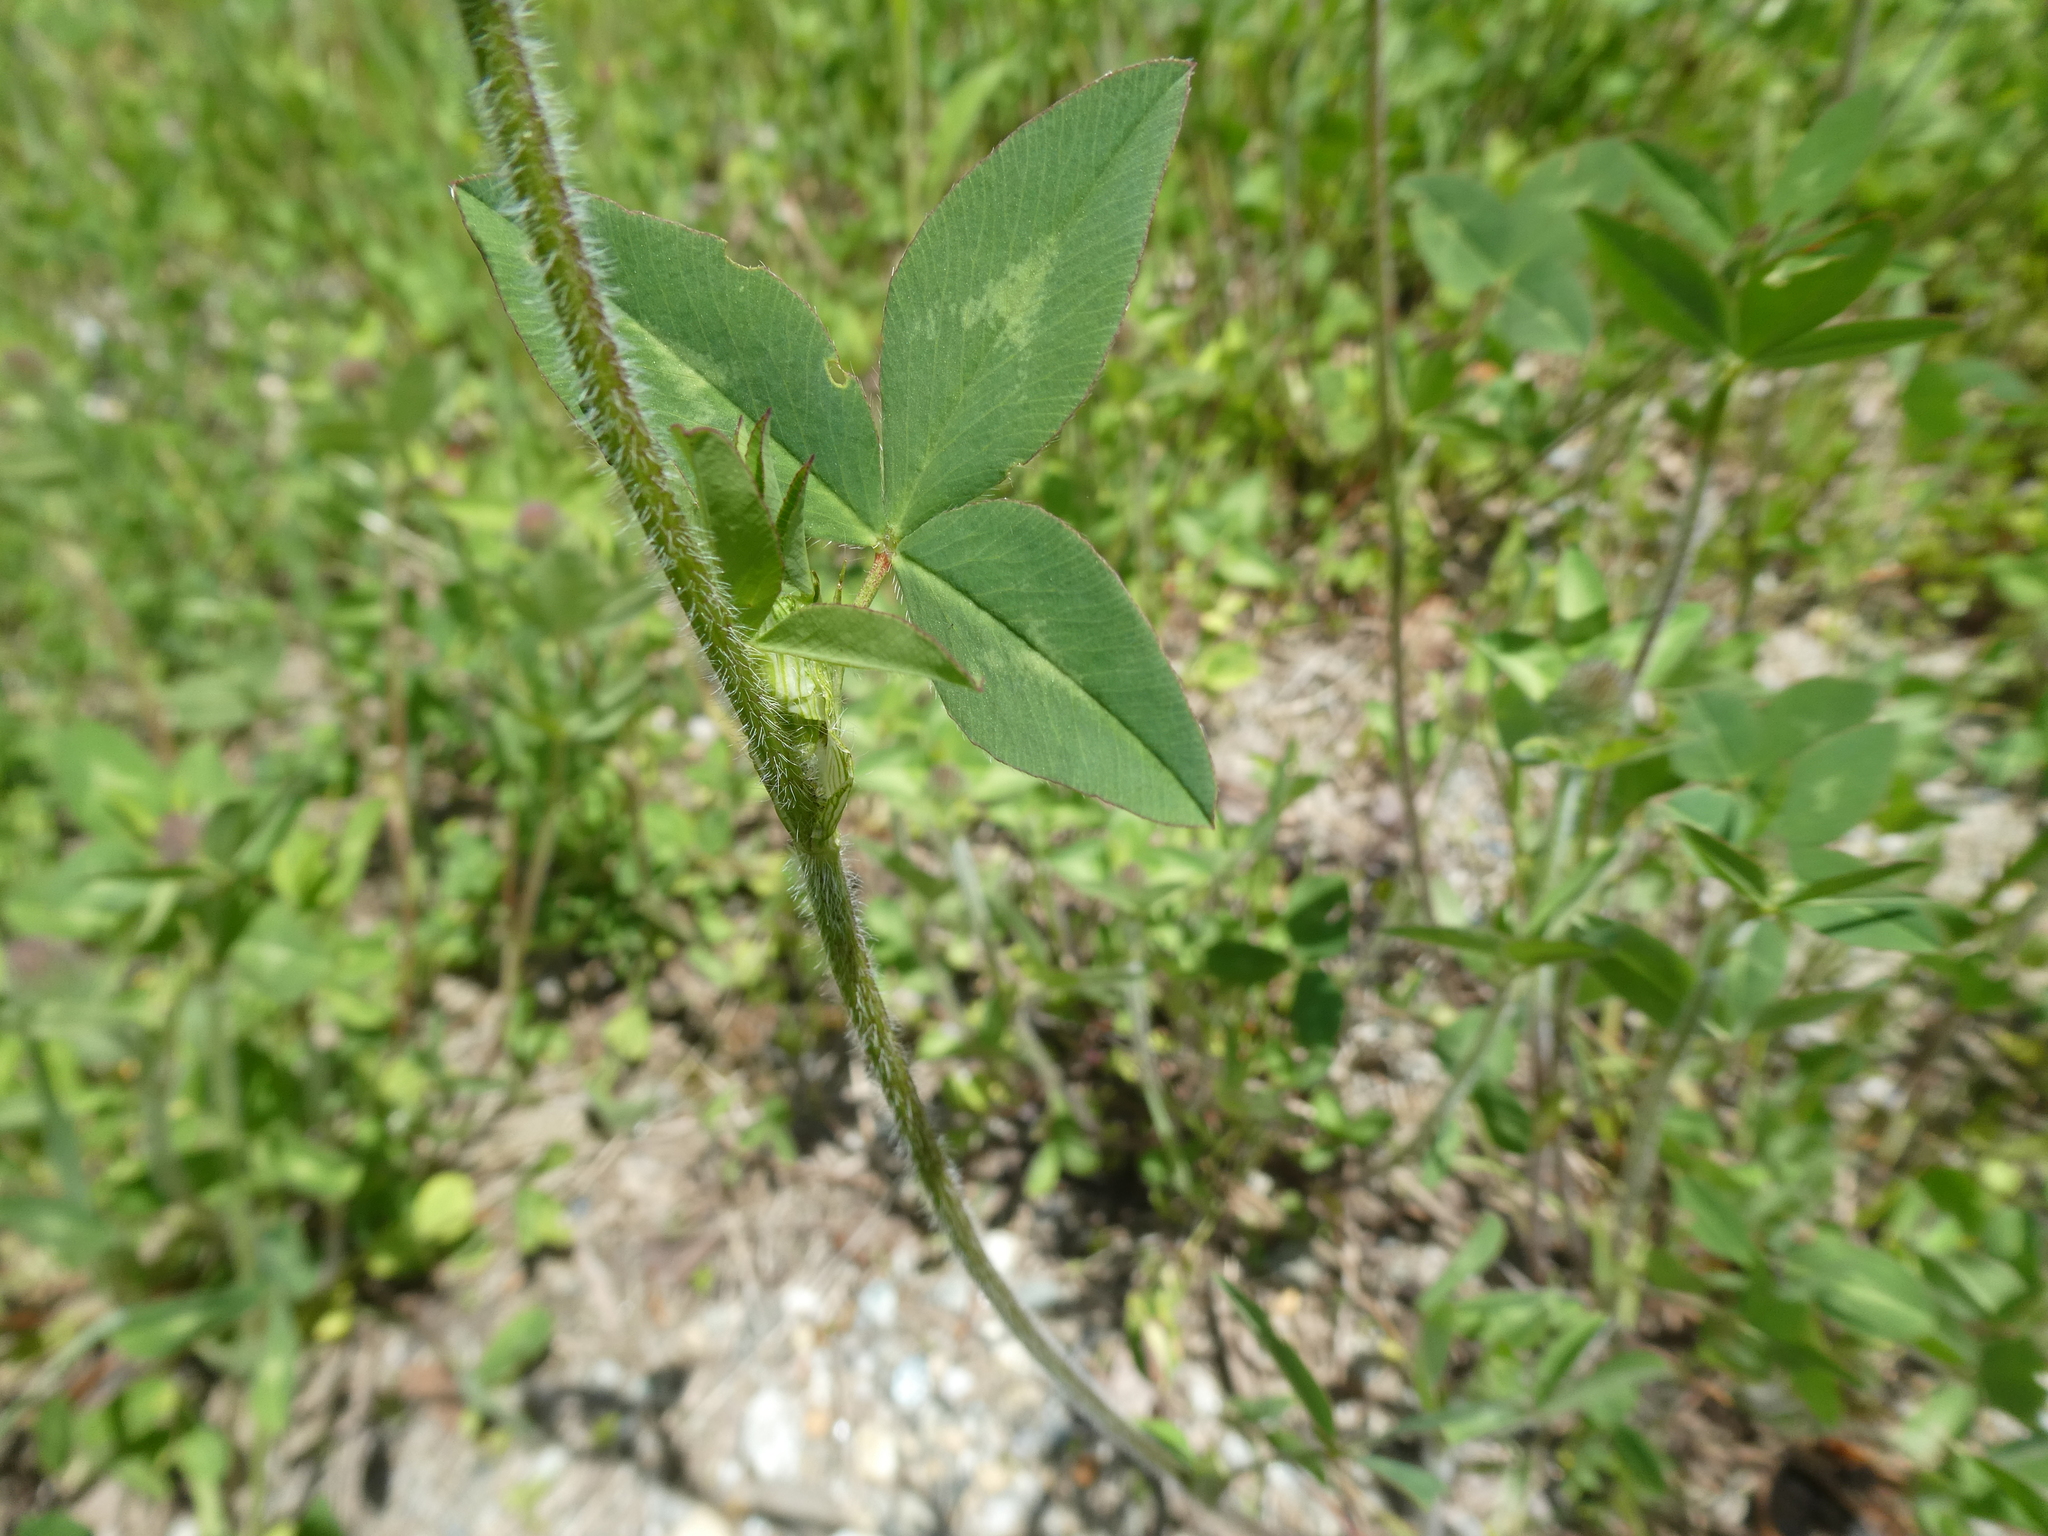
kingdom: Plantae
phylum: Tracheophyta
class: Magnoliopsida
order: Fabales
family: Fabaceae
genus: Trifolium
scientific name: Trifolium pratense
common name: Red clover
